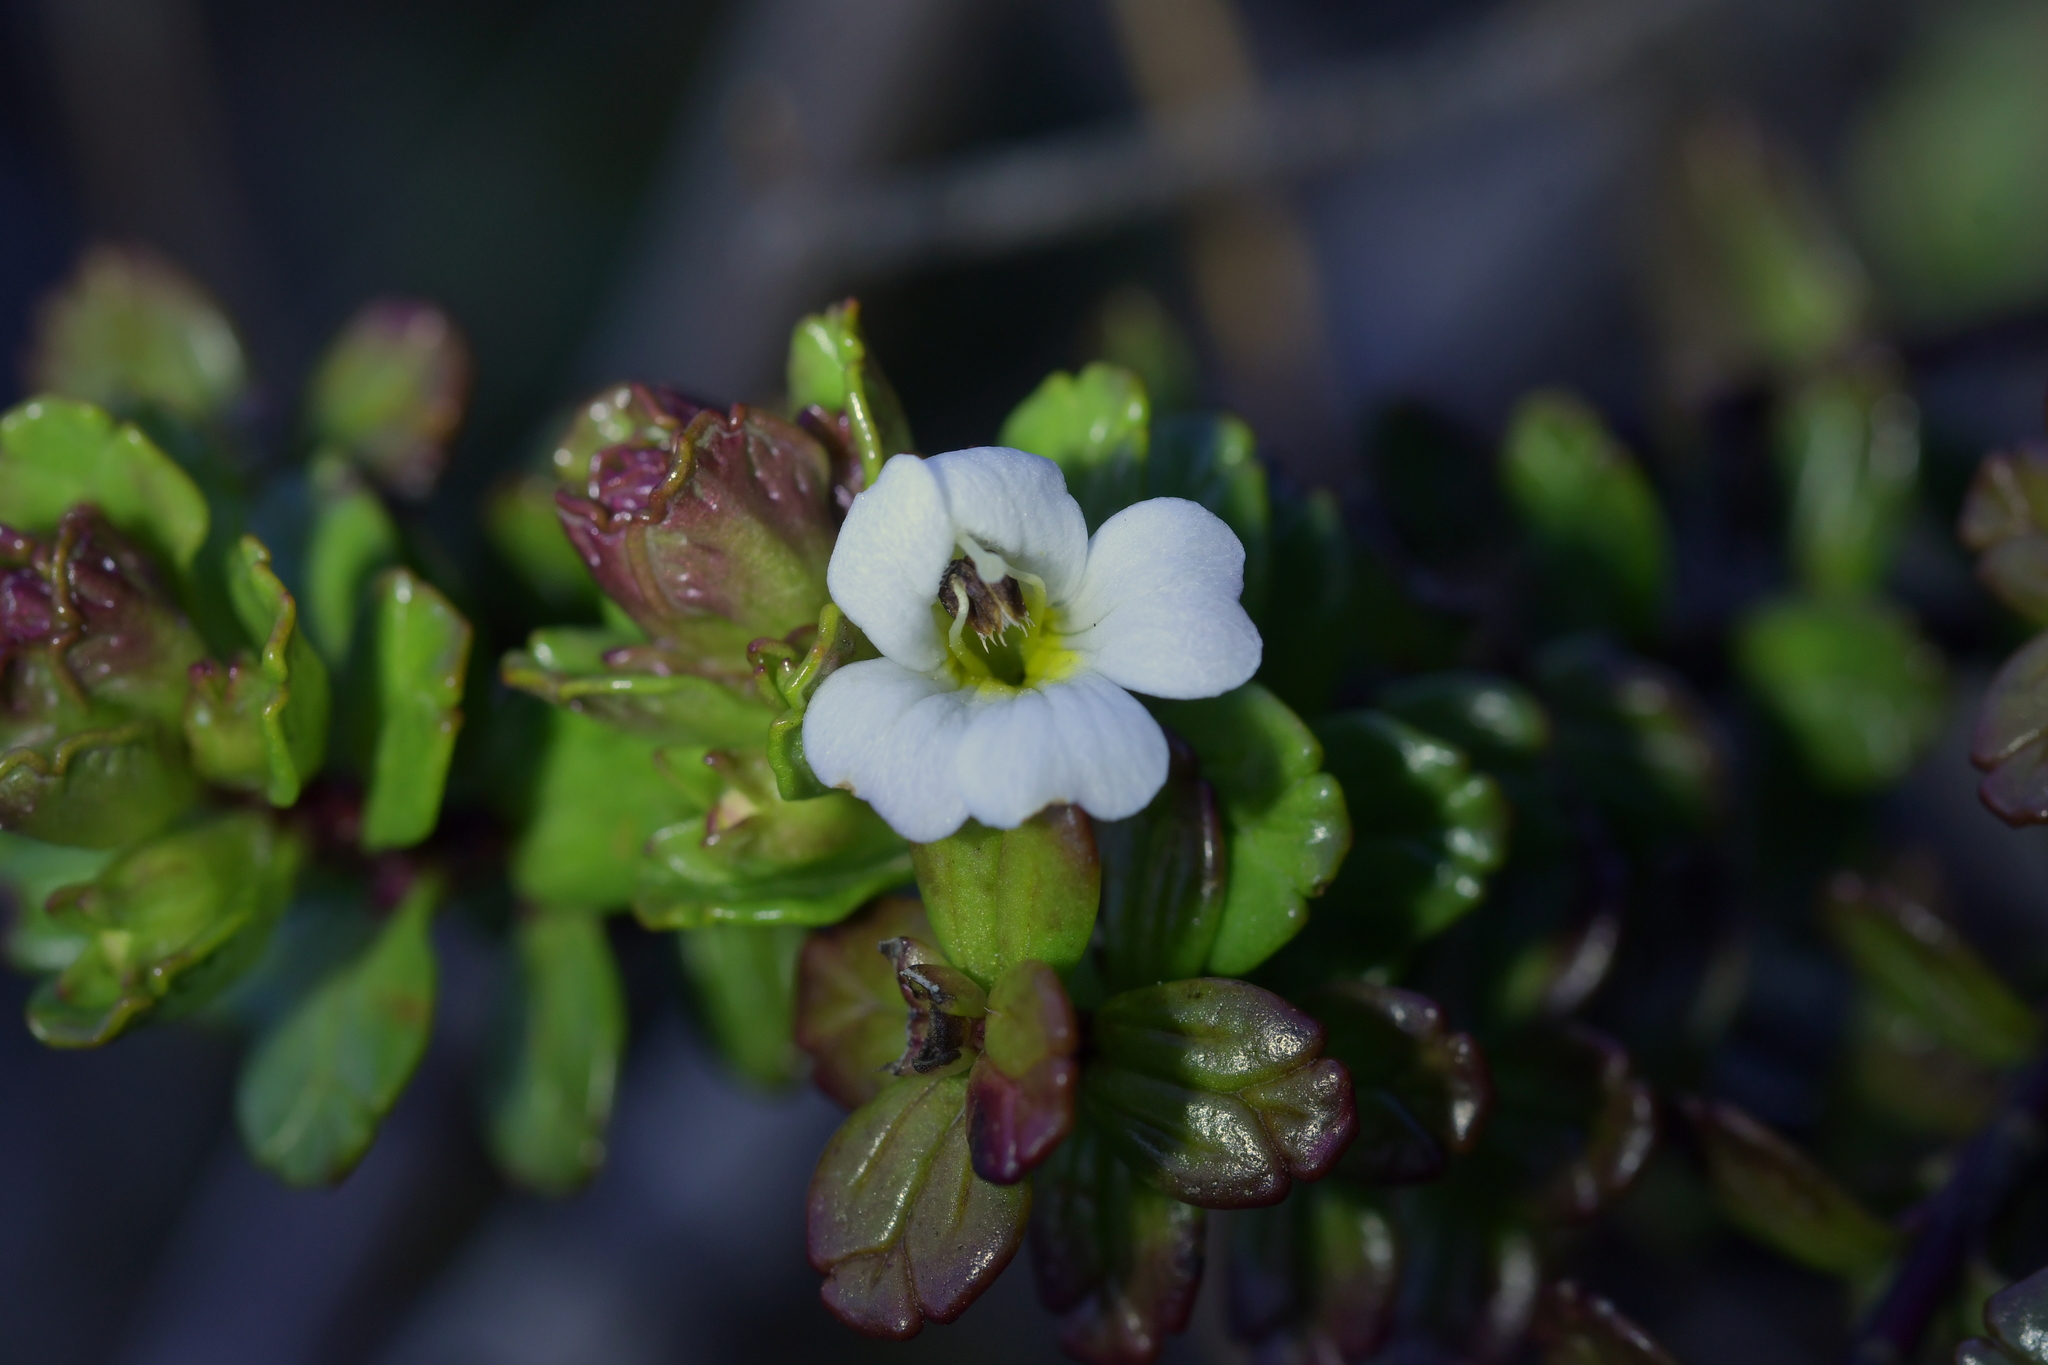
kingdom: Plantae
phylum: Tracheophyta
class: Magnoliopsida
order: Lamiales
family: Orobanchaceae
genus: Euphrasia
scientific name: Euphrasia monroi
